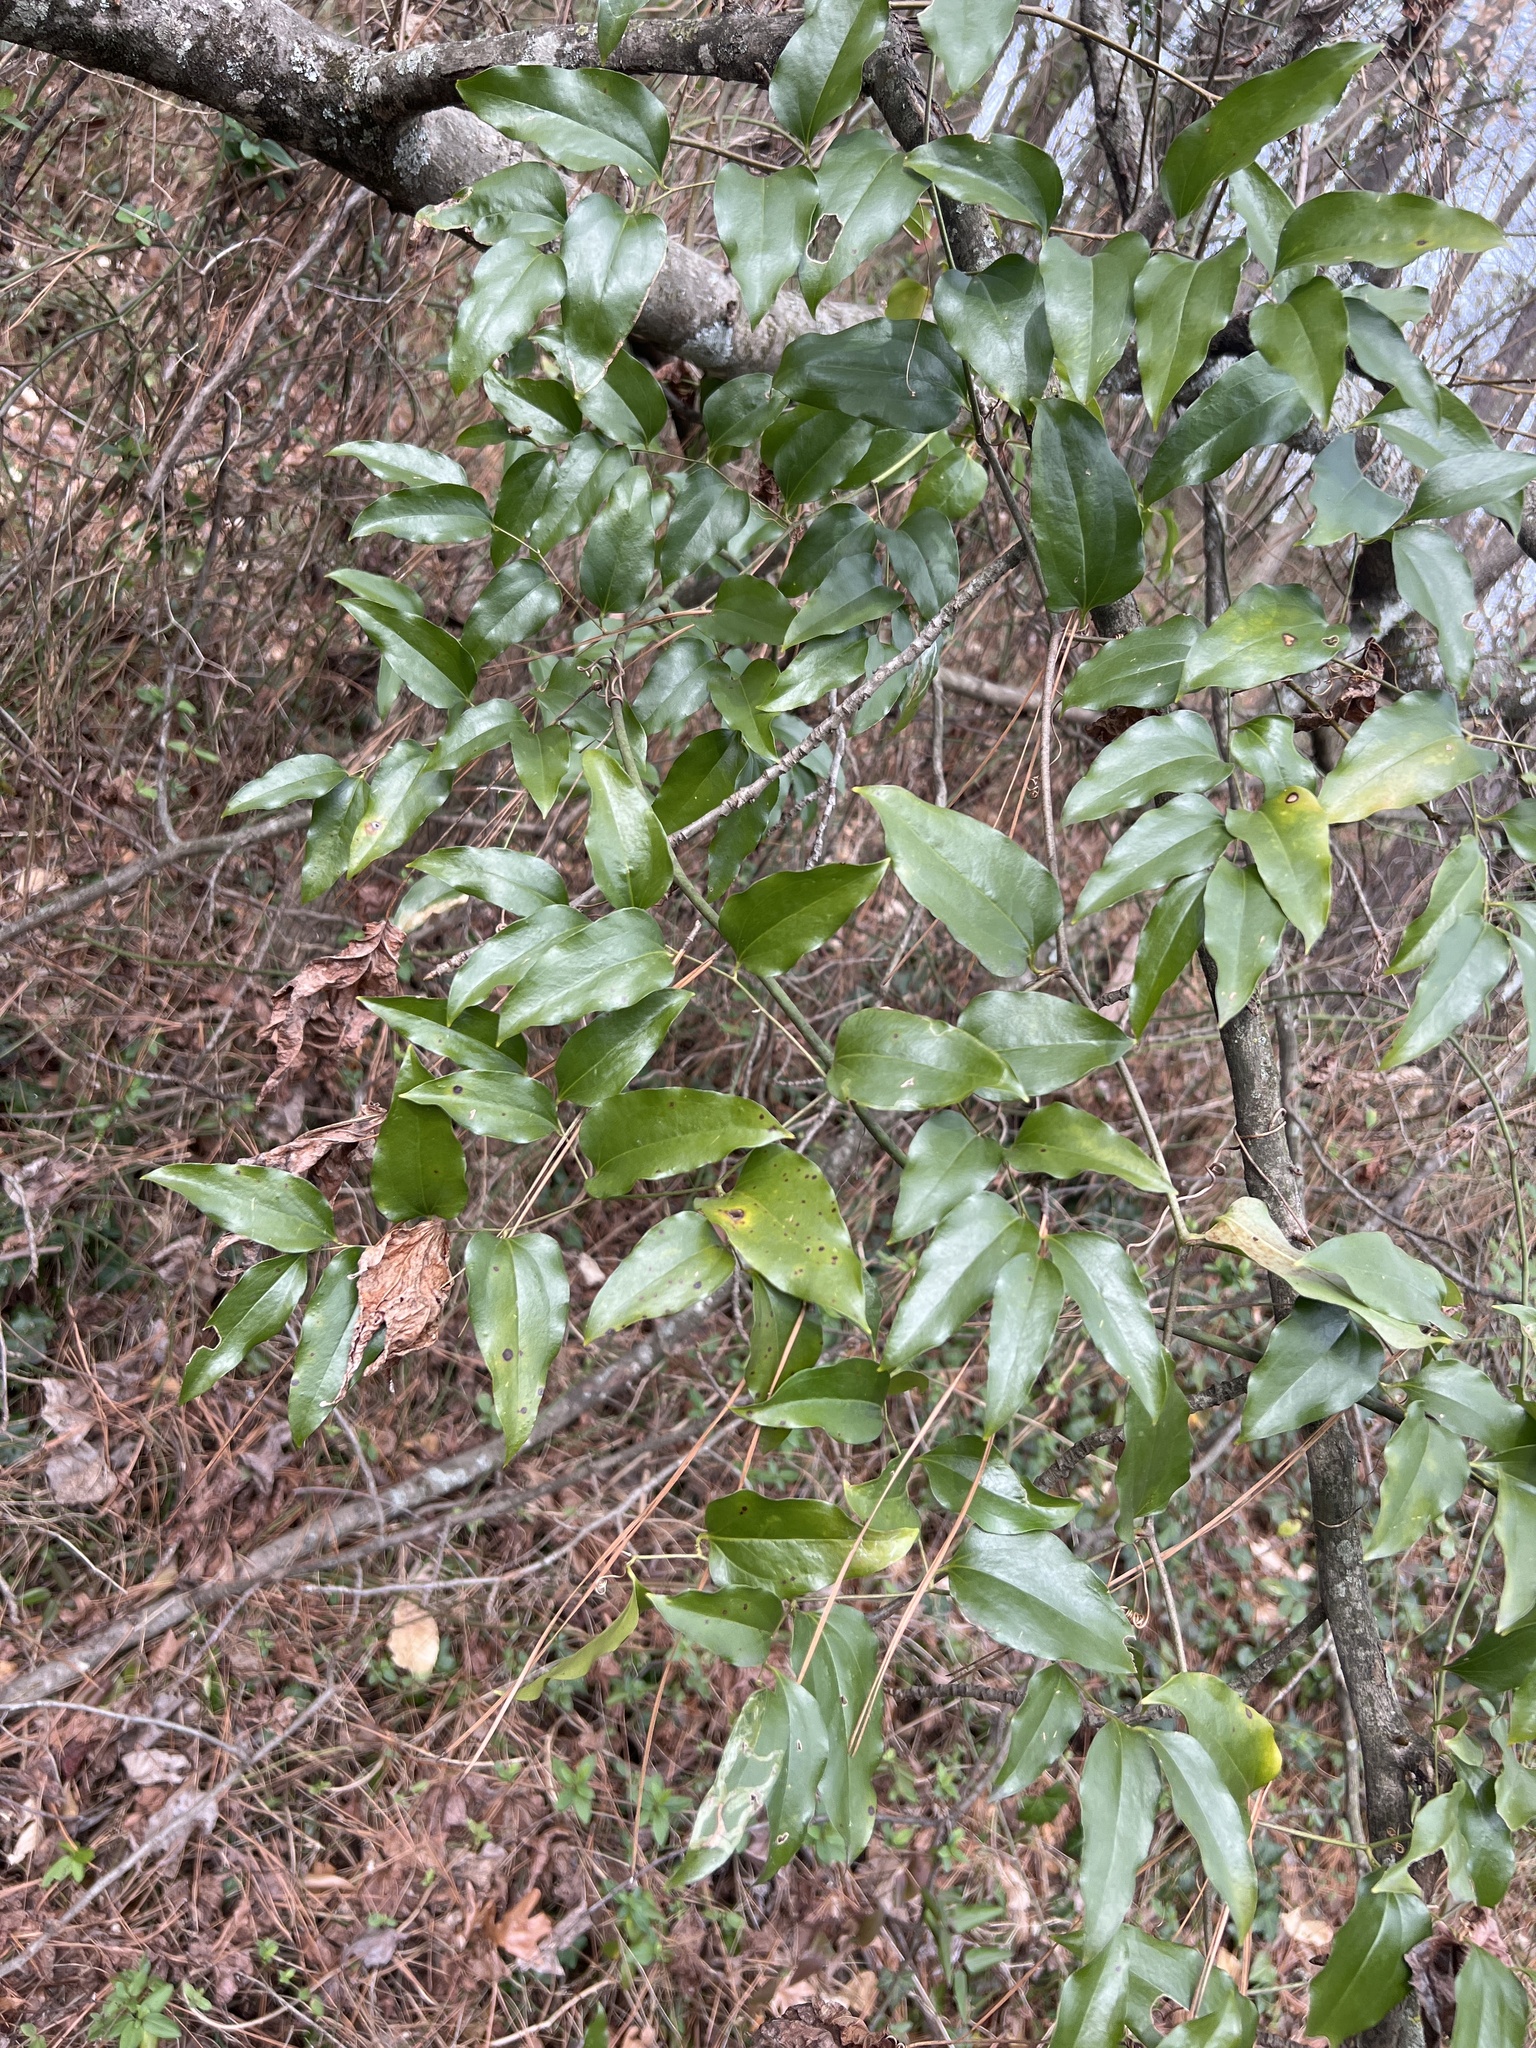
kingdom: Plantae
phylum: Tracheophyta
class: Liliopsida
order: Liliales
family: Smilacaceae
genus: Smilax
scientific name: Smilax maritima
